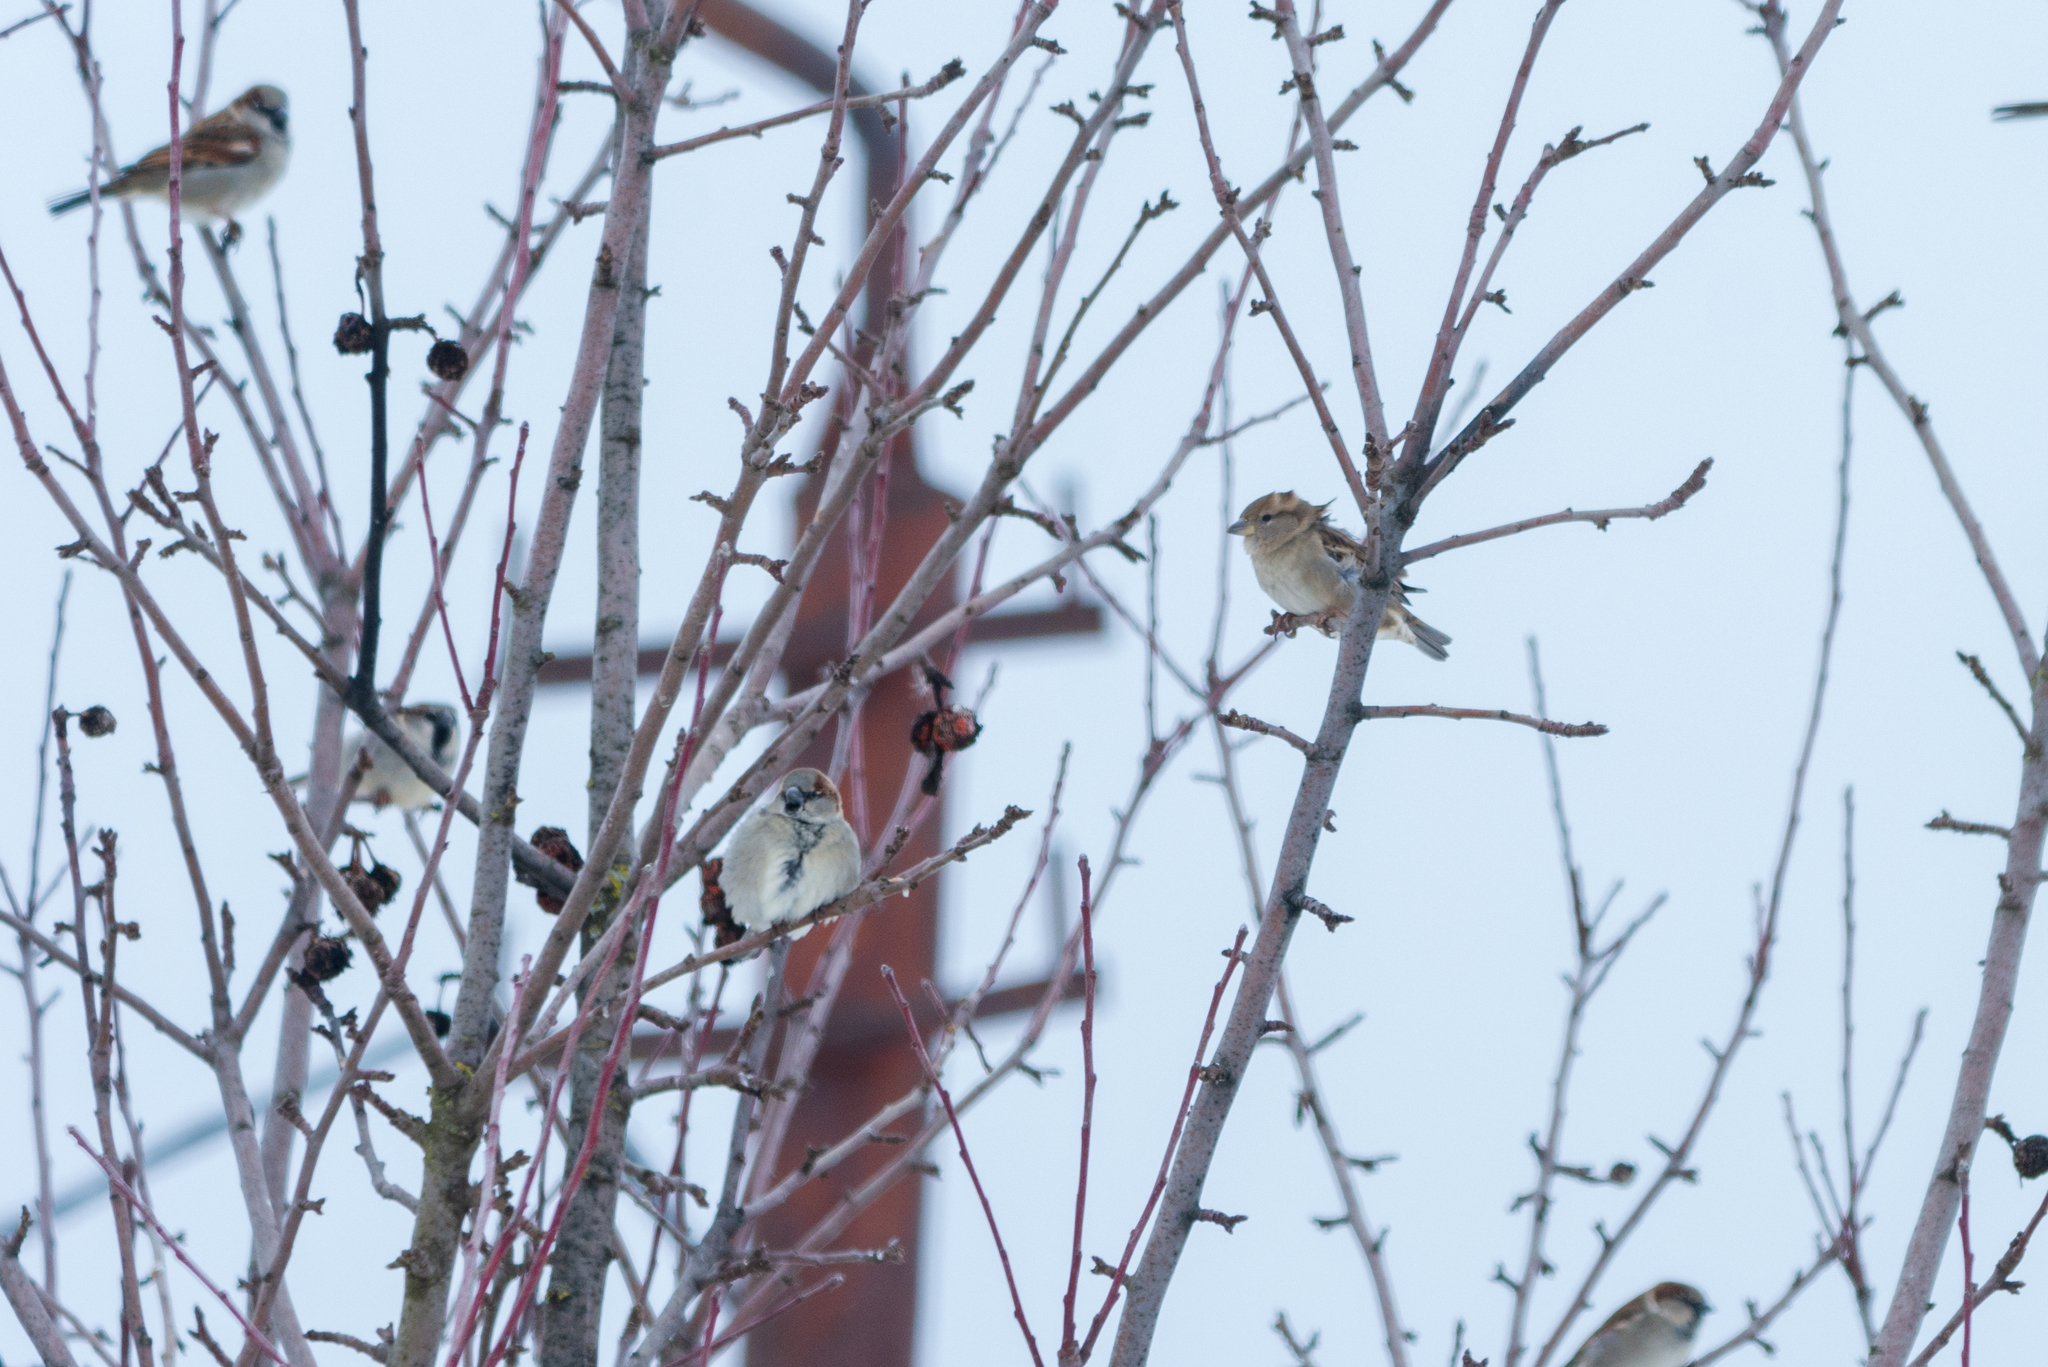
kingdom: Animalia
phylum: Chordata
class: Aves
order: Passeriformes
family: Passeridae
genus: Passer
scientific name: Passer domesticus
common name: House sparrow
